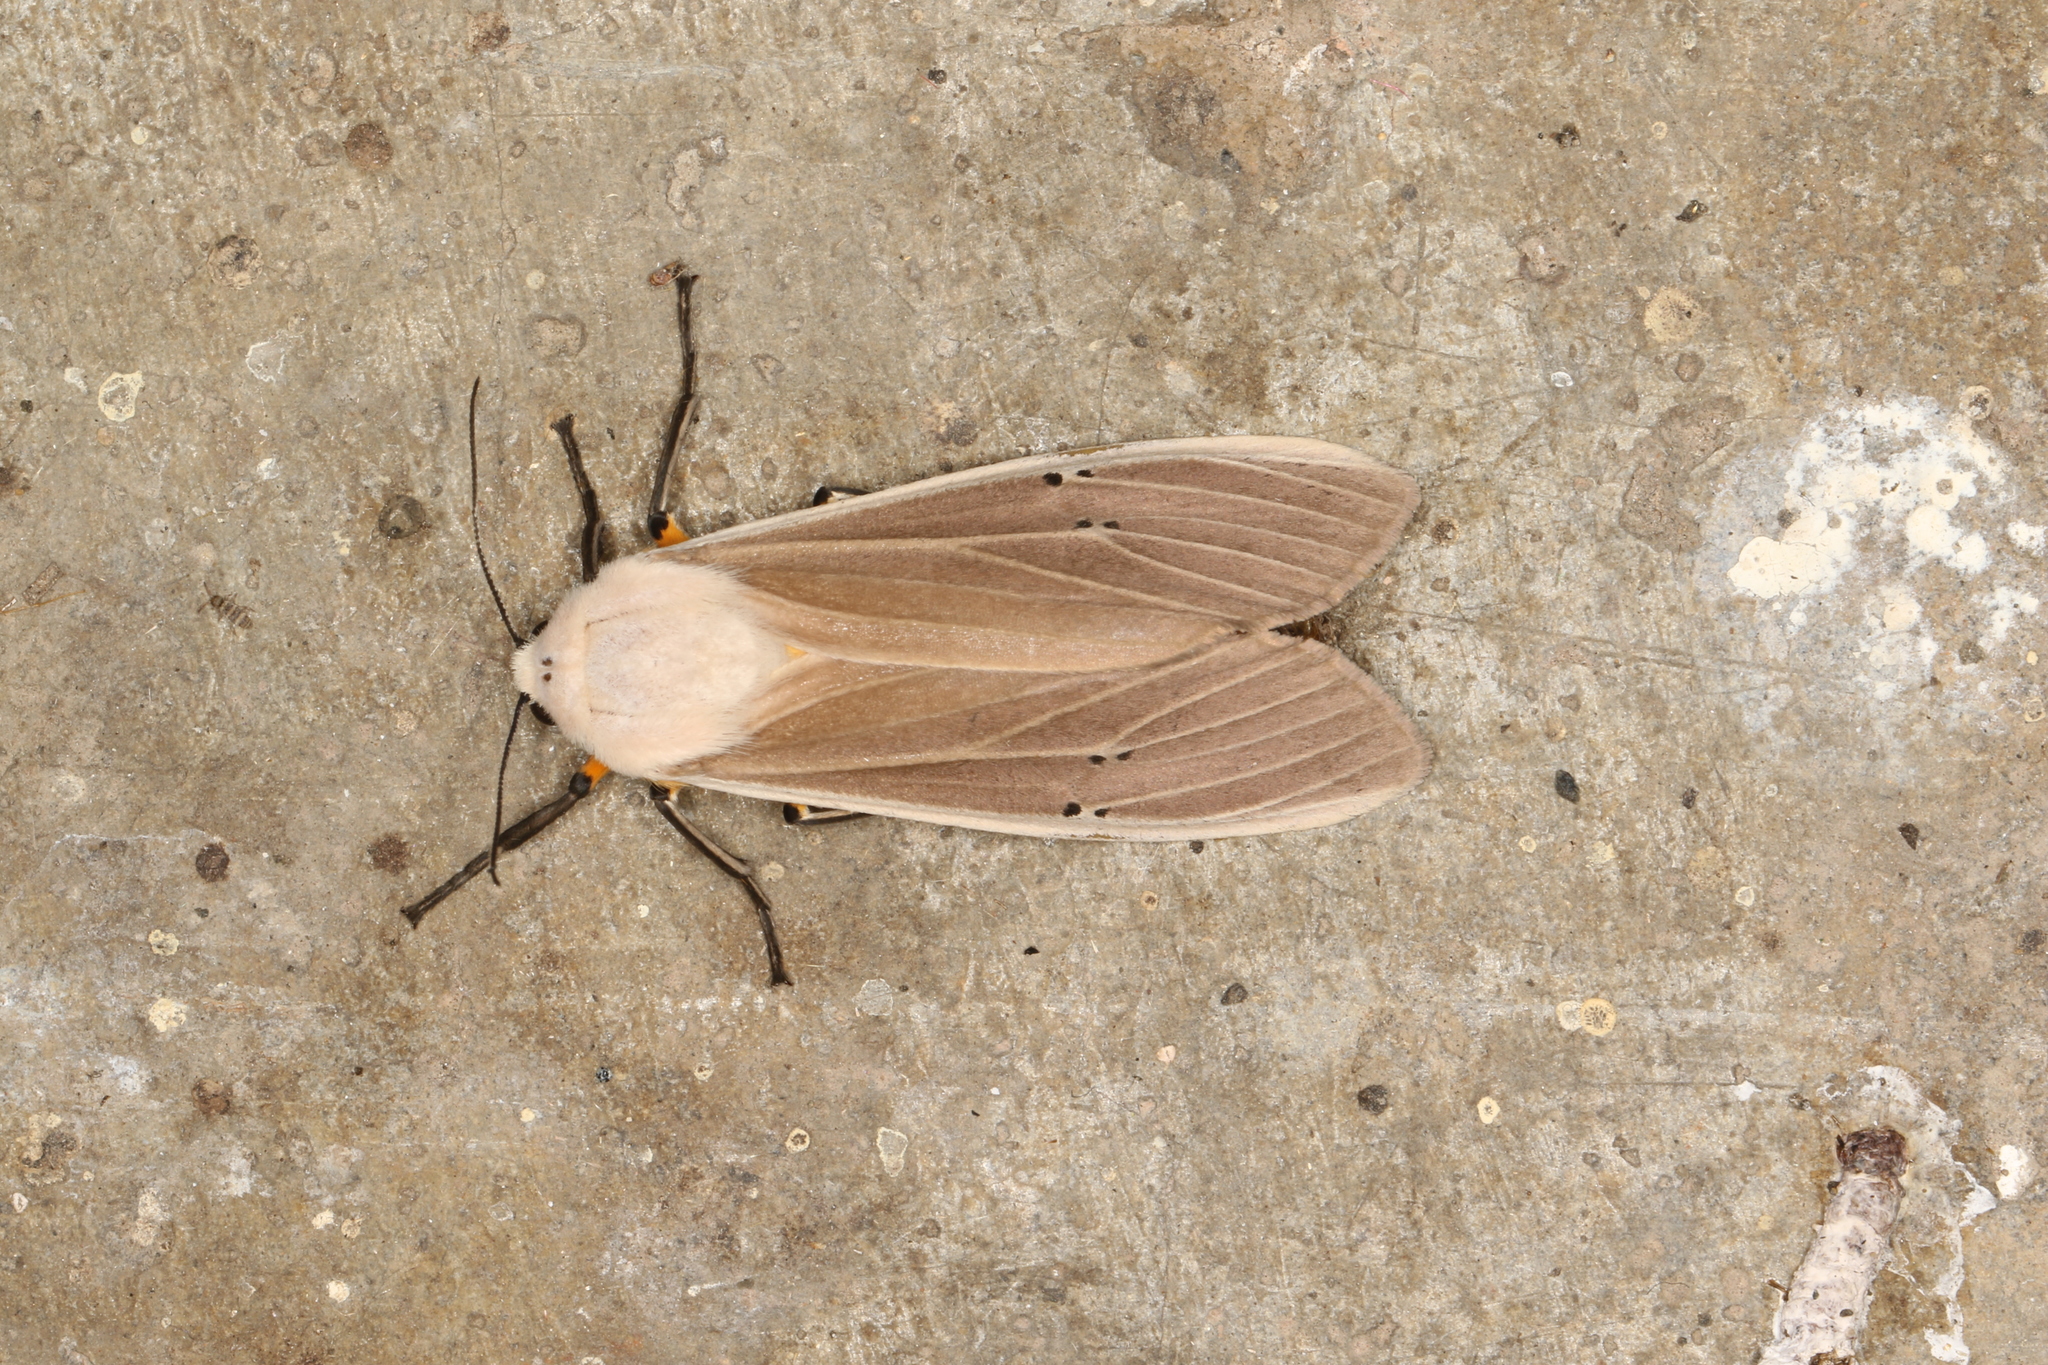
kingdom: Animalia
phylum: Arthropoda
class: Insecta
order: Lepidoptera
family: Erebidae
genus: Creatonotos
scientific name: Creatonotos transiens
